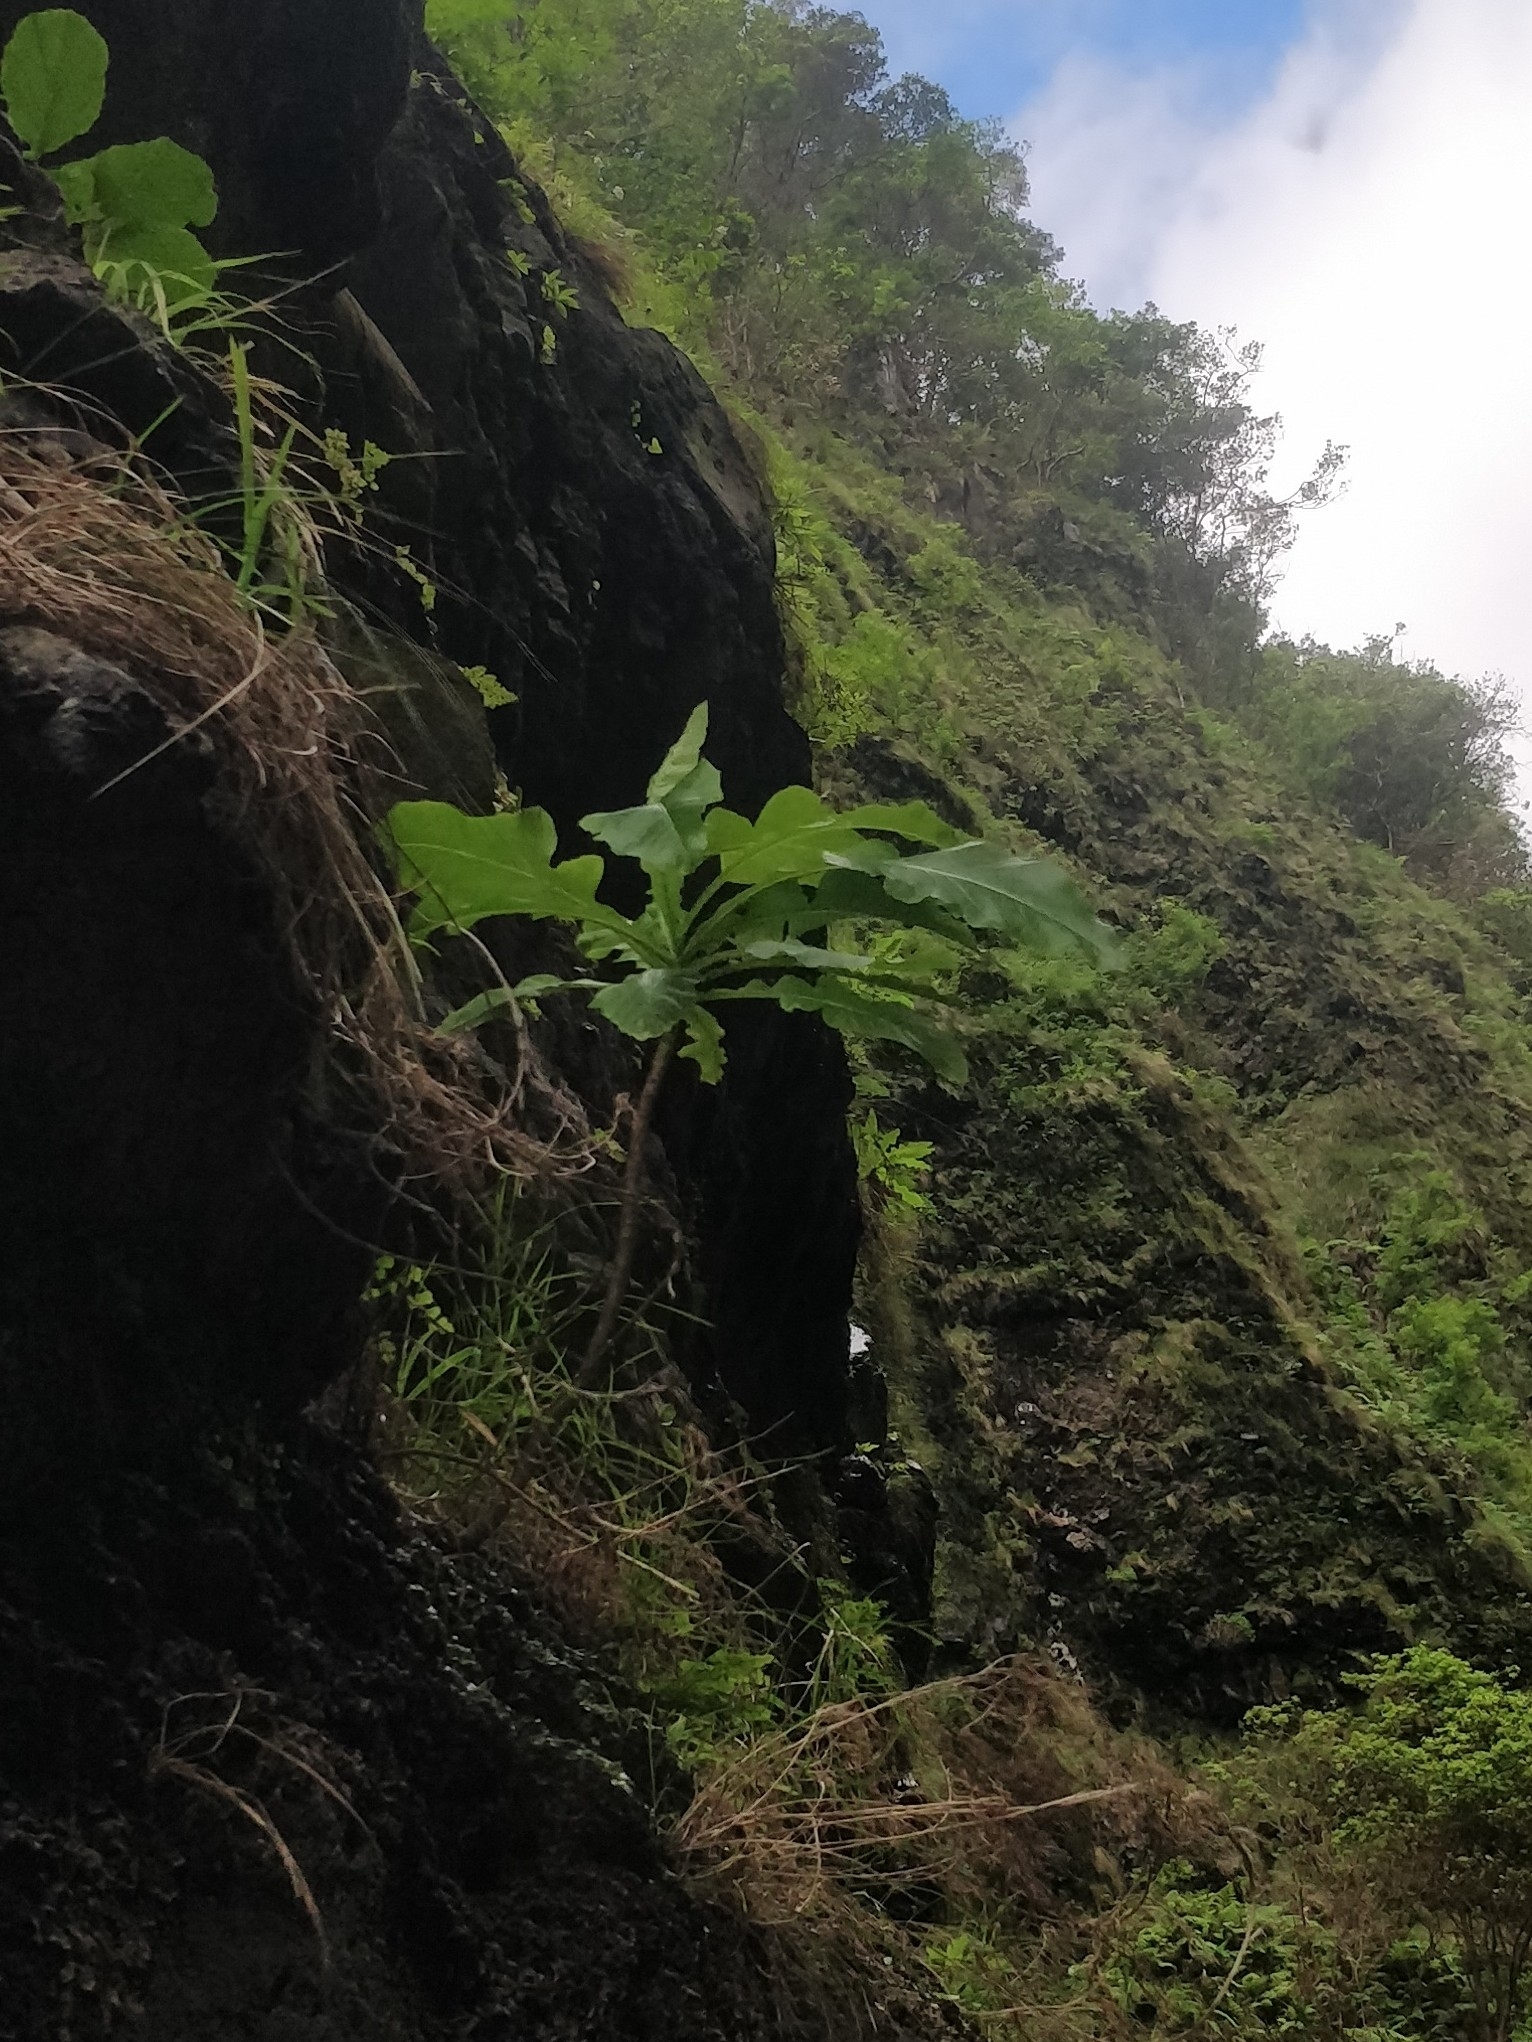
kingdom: Plantae
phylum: Tracheophyta
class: Magnoliopsida
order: Asterales
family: Asteraceae
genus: Sonchus
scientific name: Sonchus fruticosus
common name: Shrubby sow-thistle
